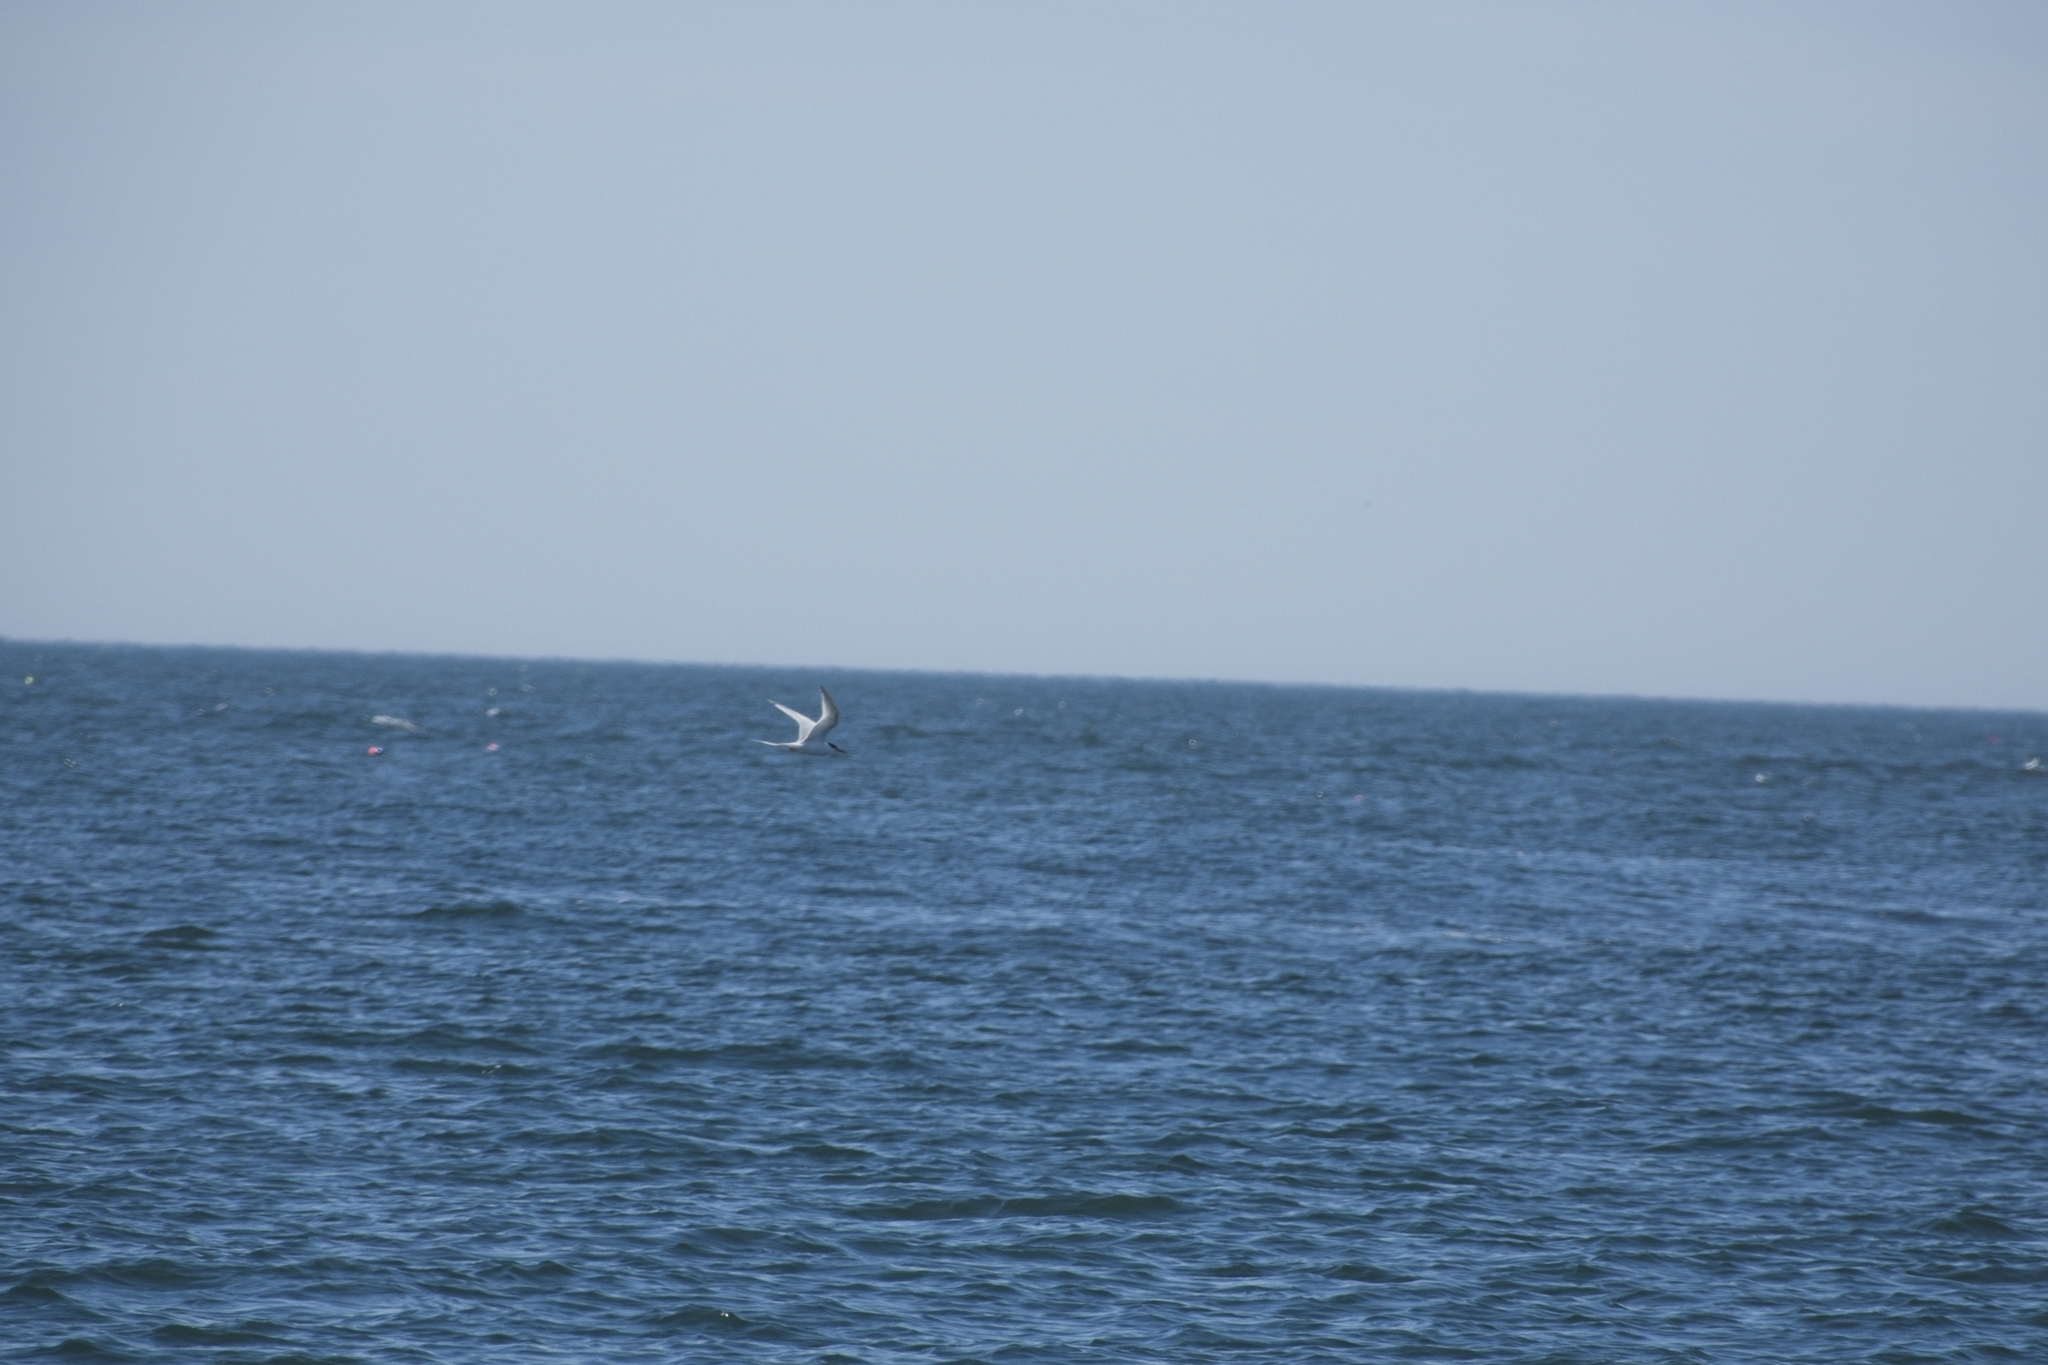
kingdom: Animalia
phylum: Chordata
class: Aves
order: Charadriiformes
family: Laridae
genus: Sterna
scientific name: Sterna dougallii
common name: Roseate tern
